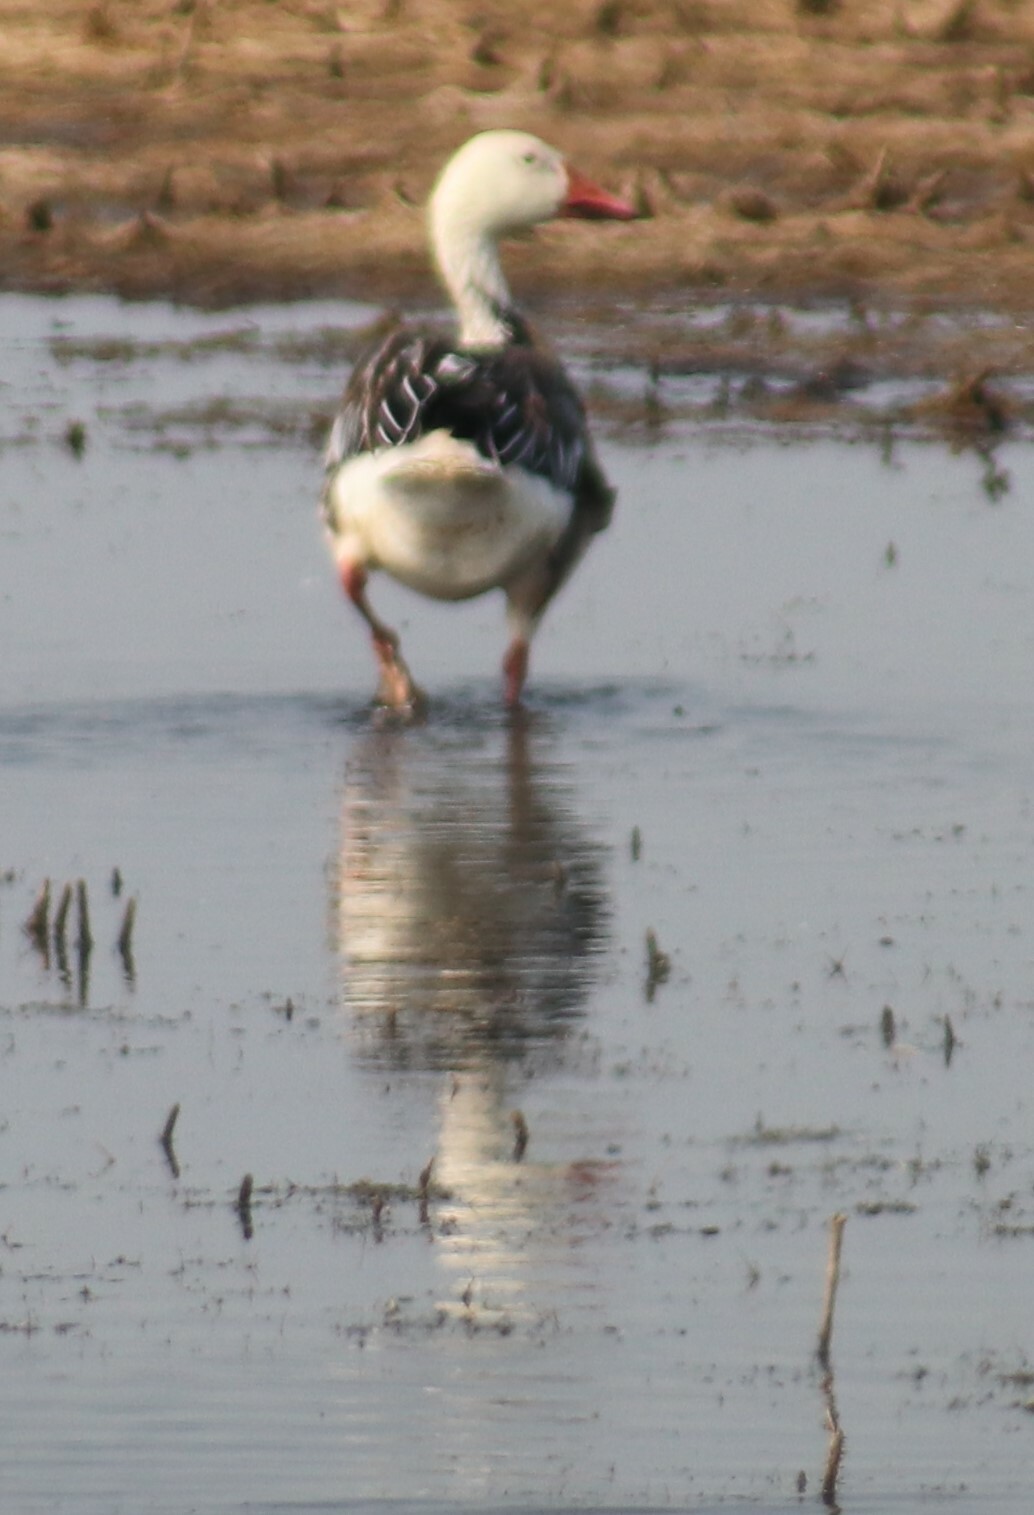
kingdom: Animalia
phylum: Chordata
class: Aves
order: Anseriformes
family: Anatidae
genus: Anser
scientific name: Anser caerulescens
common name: Snow goose
